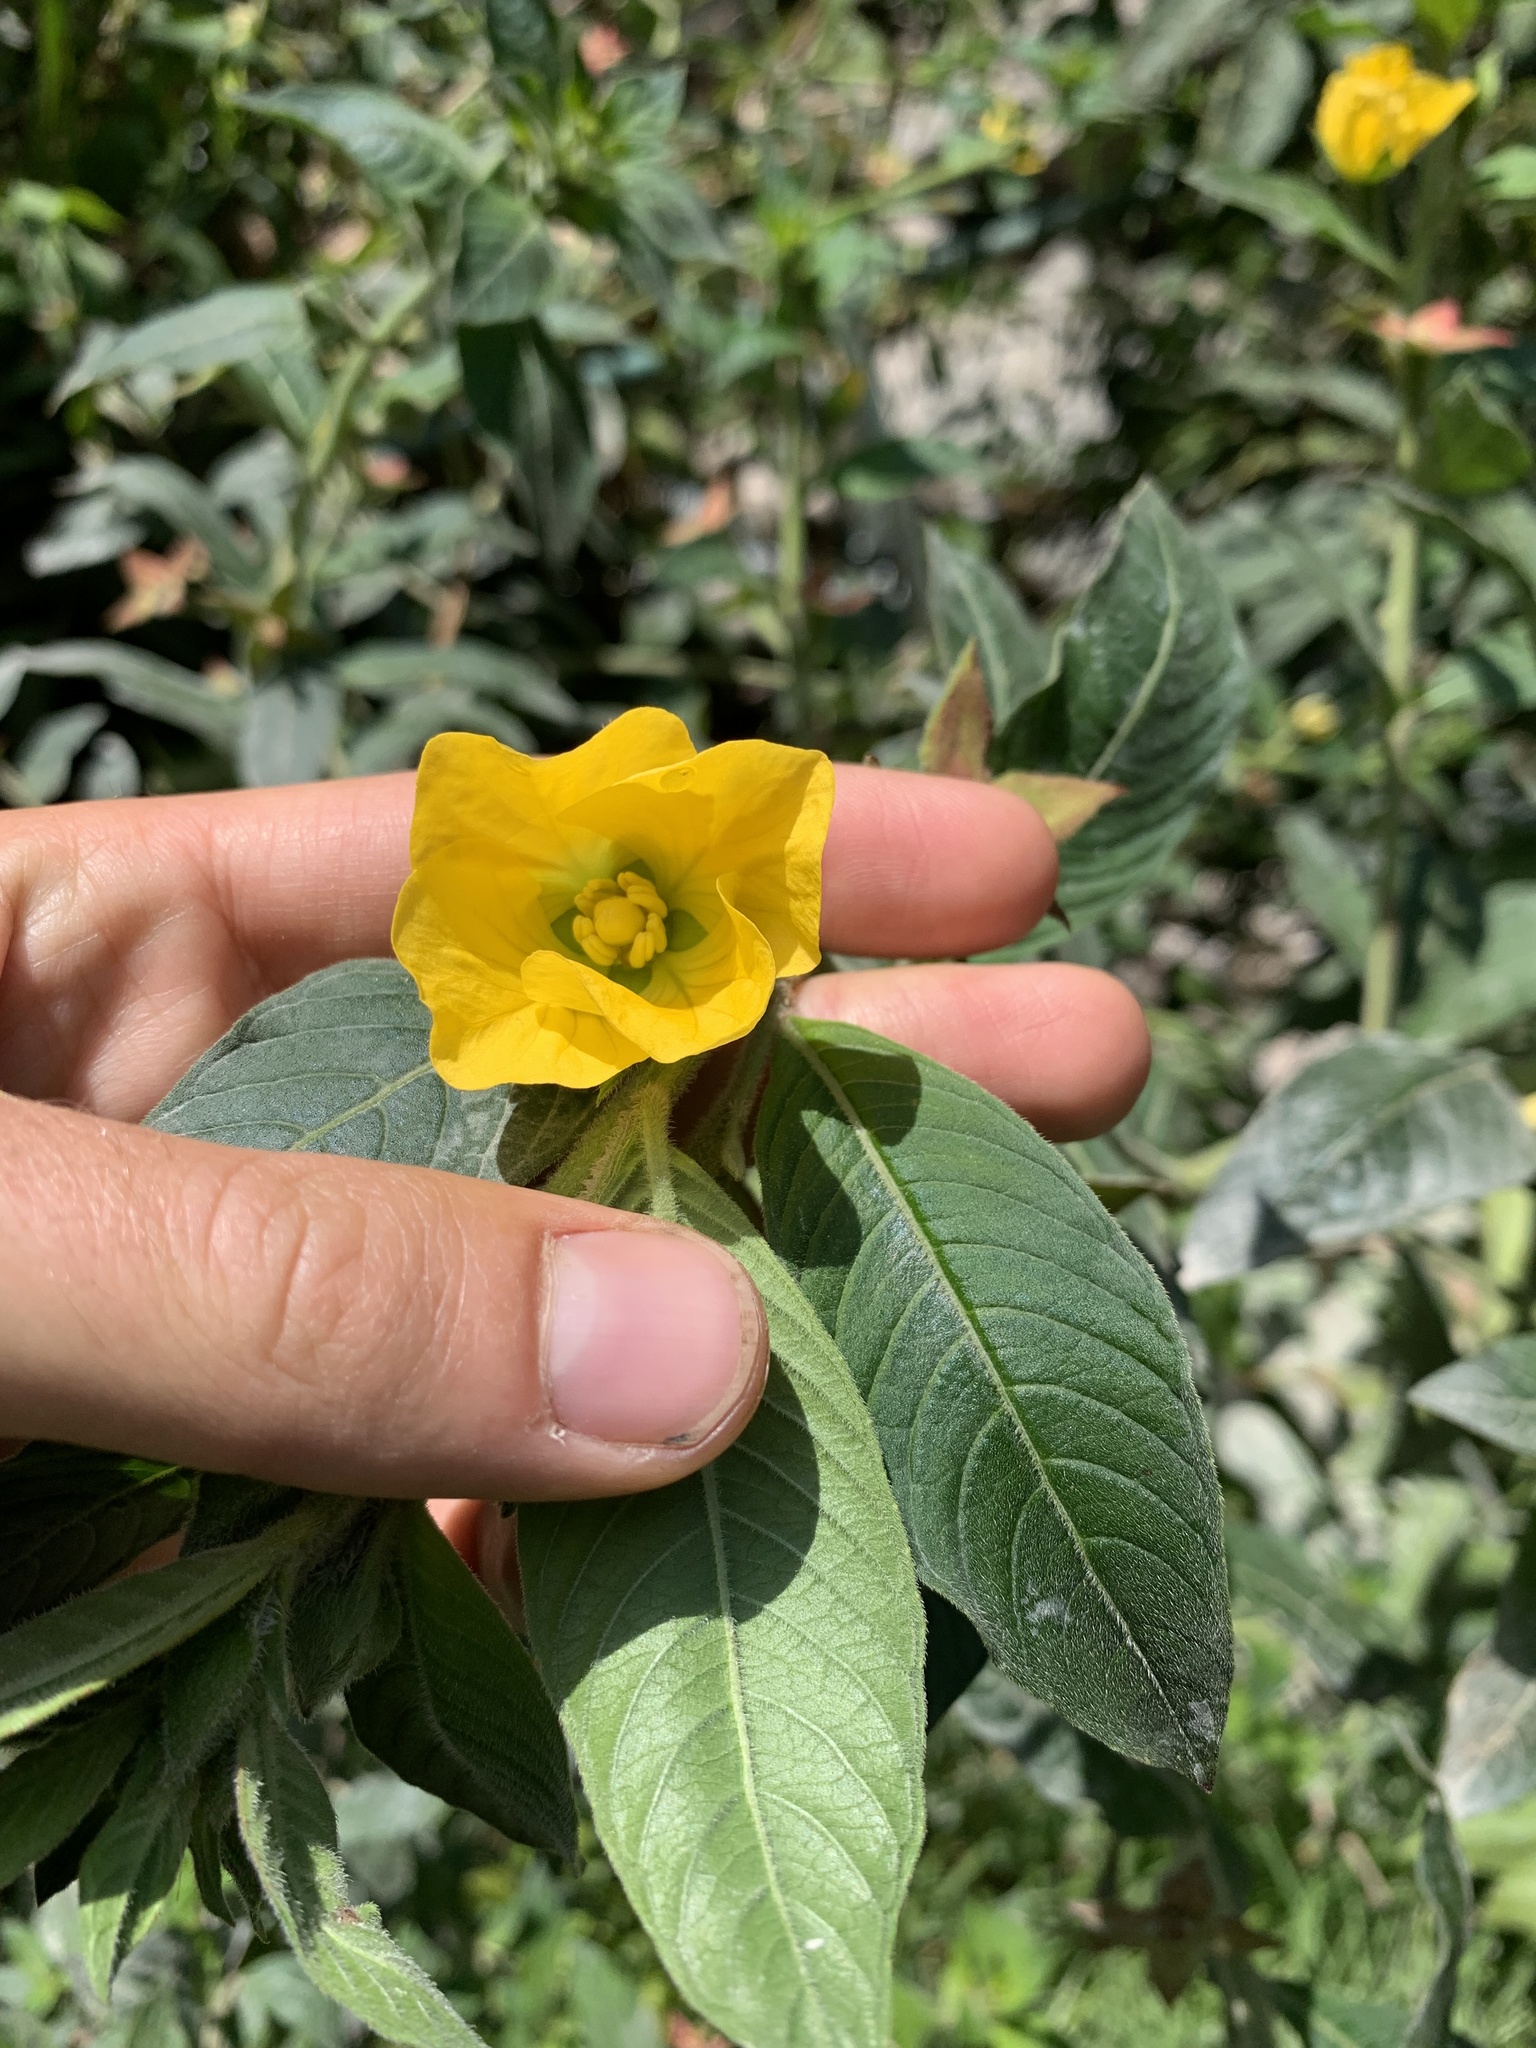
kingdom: Plantae
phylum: Tracheophyta
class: Magnoliopsida
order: Myrtales
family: Onagraceae
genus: Ludwigia
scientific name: Ludwigia peruviana
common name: Peruvian primrose-willow
